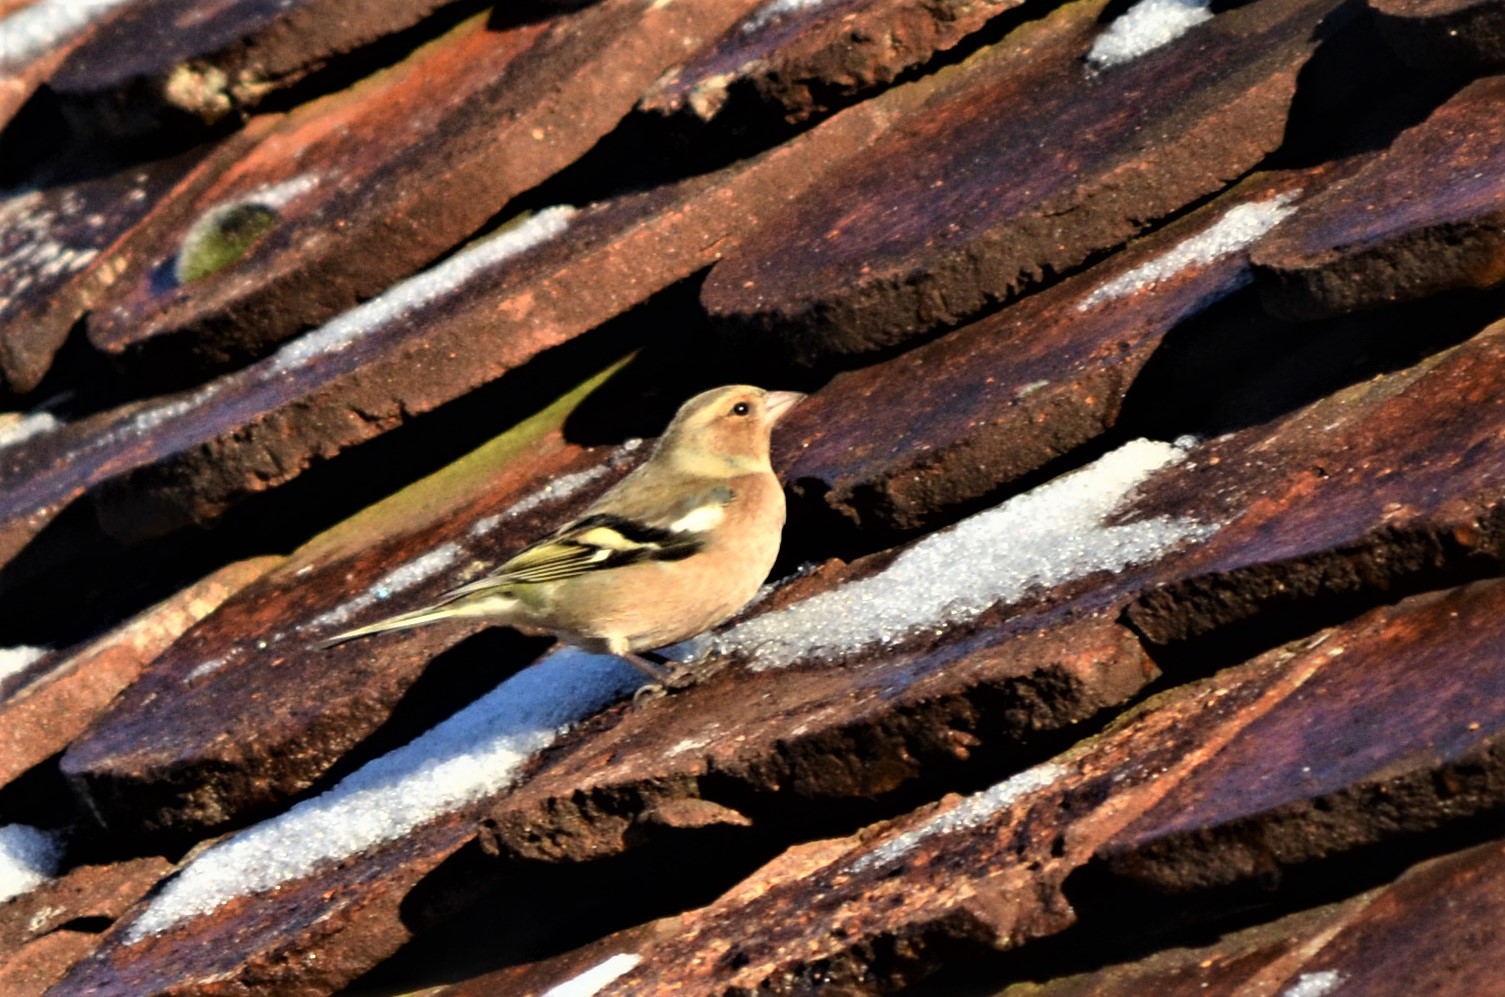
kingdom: Animalia
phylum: Chordata
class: Aves
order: Passeriformes
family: Fringillidae
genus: Fringilla
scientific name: Fringilla coelebs
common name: Common chaffinch
